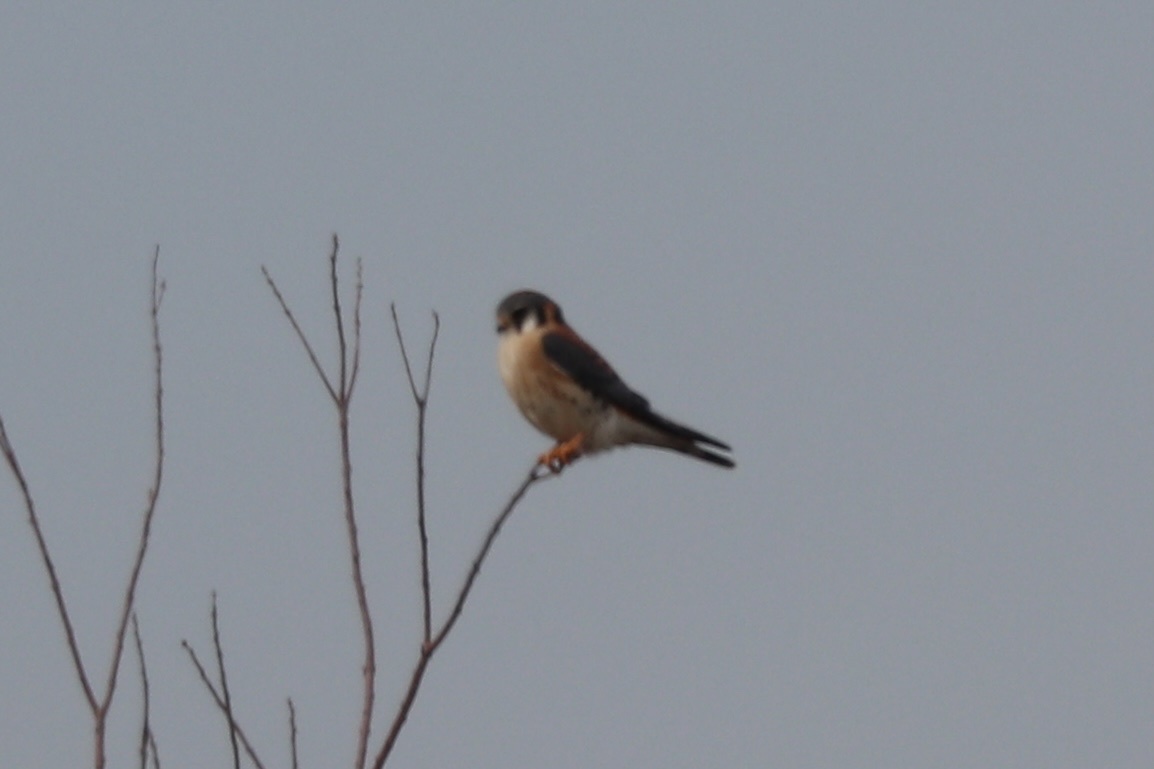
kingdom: Animalia
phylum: Chordata
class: Aves
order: Falconiformes
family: Falconidae
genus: Falco
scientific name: Falco sparverius
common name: American kestrel
